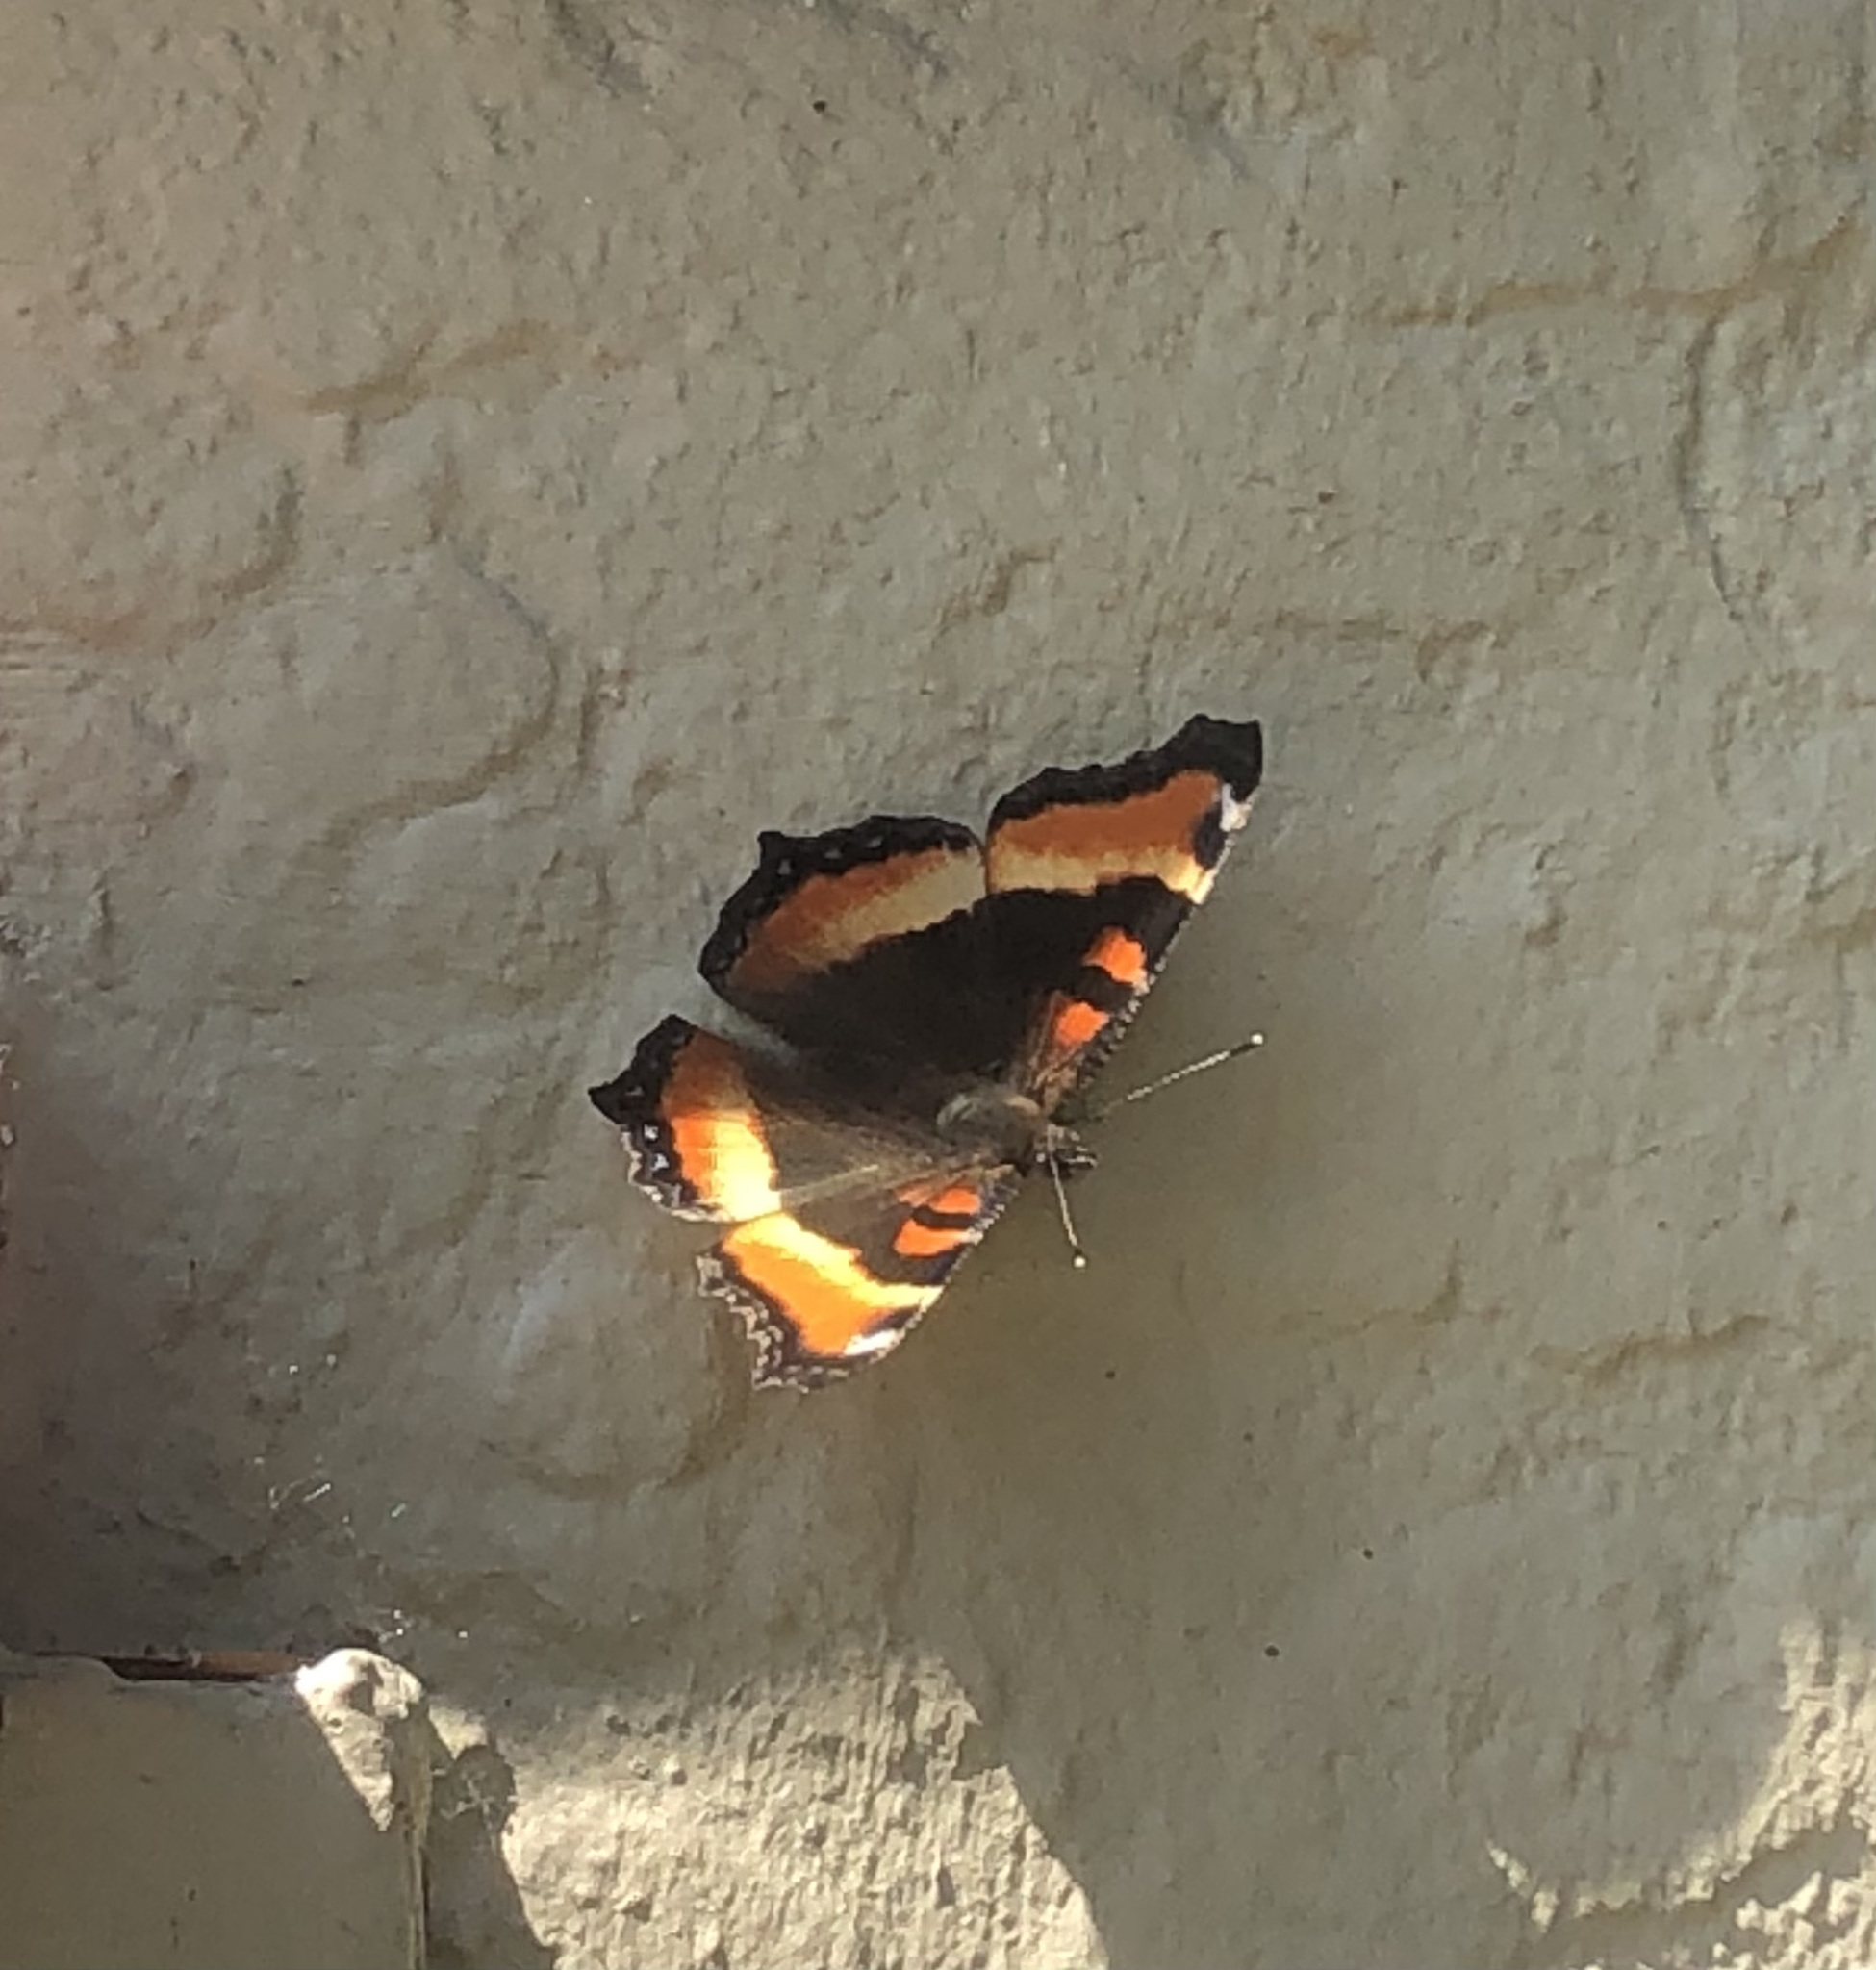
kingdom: Animalia
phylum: Arthropoda
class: Insecta
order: Lepidoptera
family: Nymphalidae
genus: Aglais
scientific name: Aglais milberti
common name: Milbert's tortoiseshell
